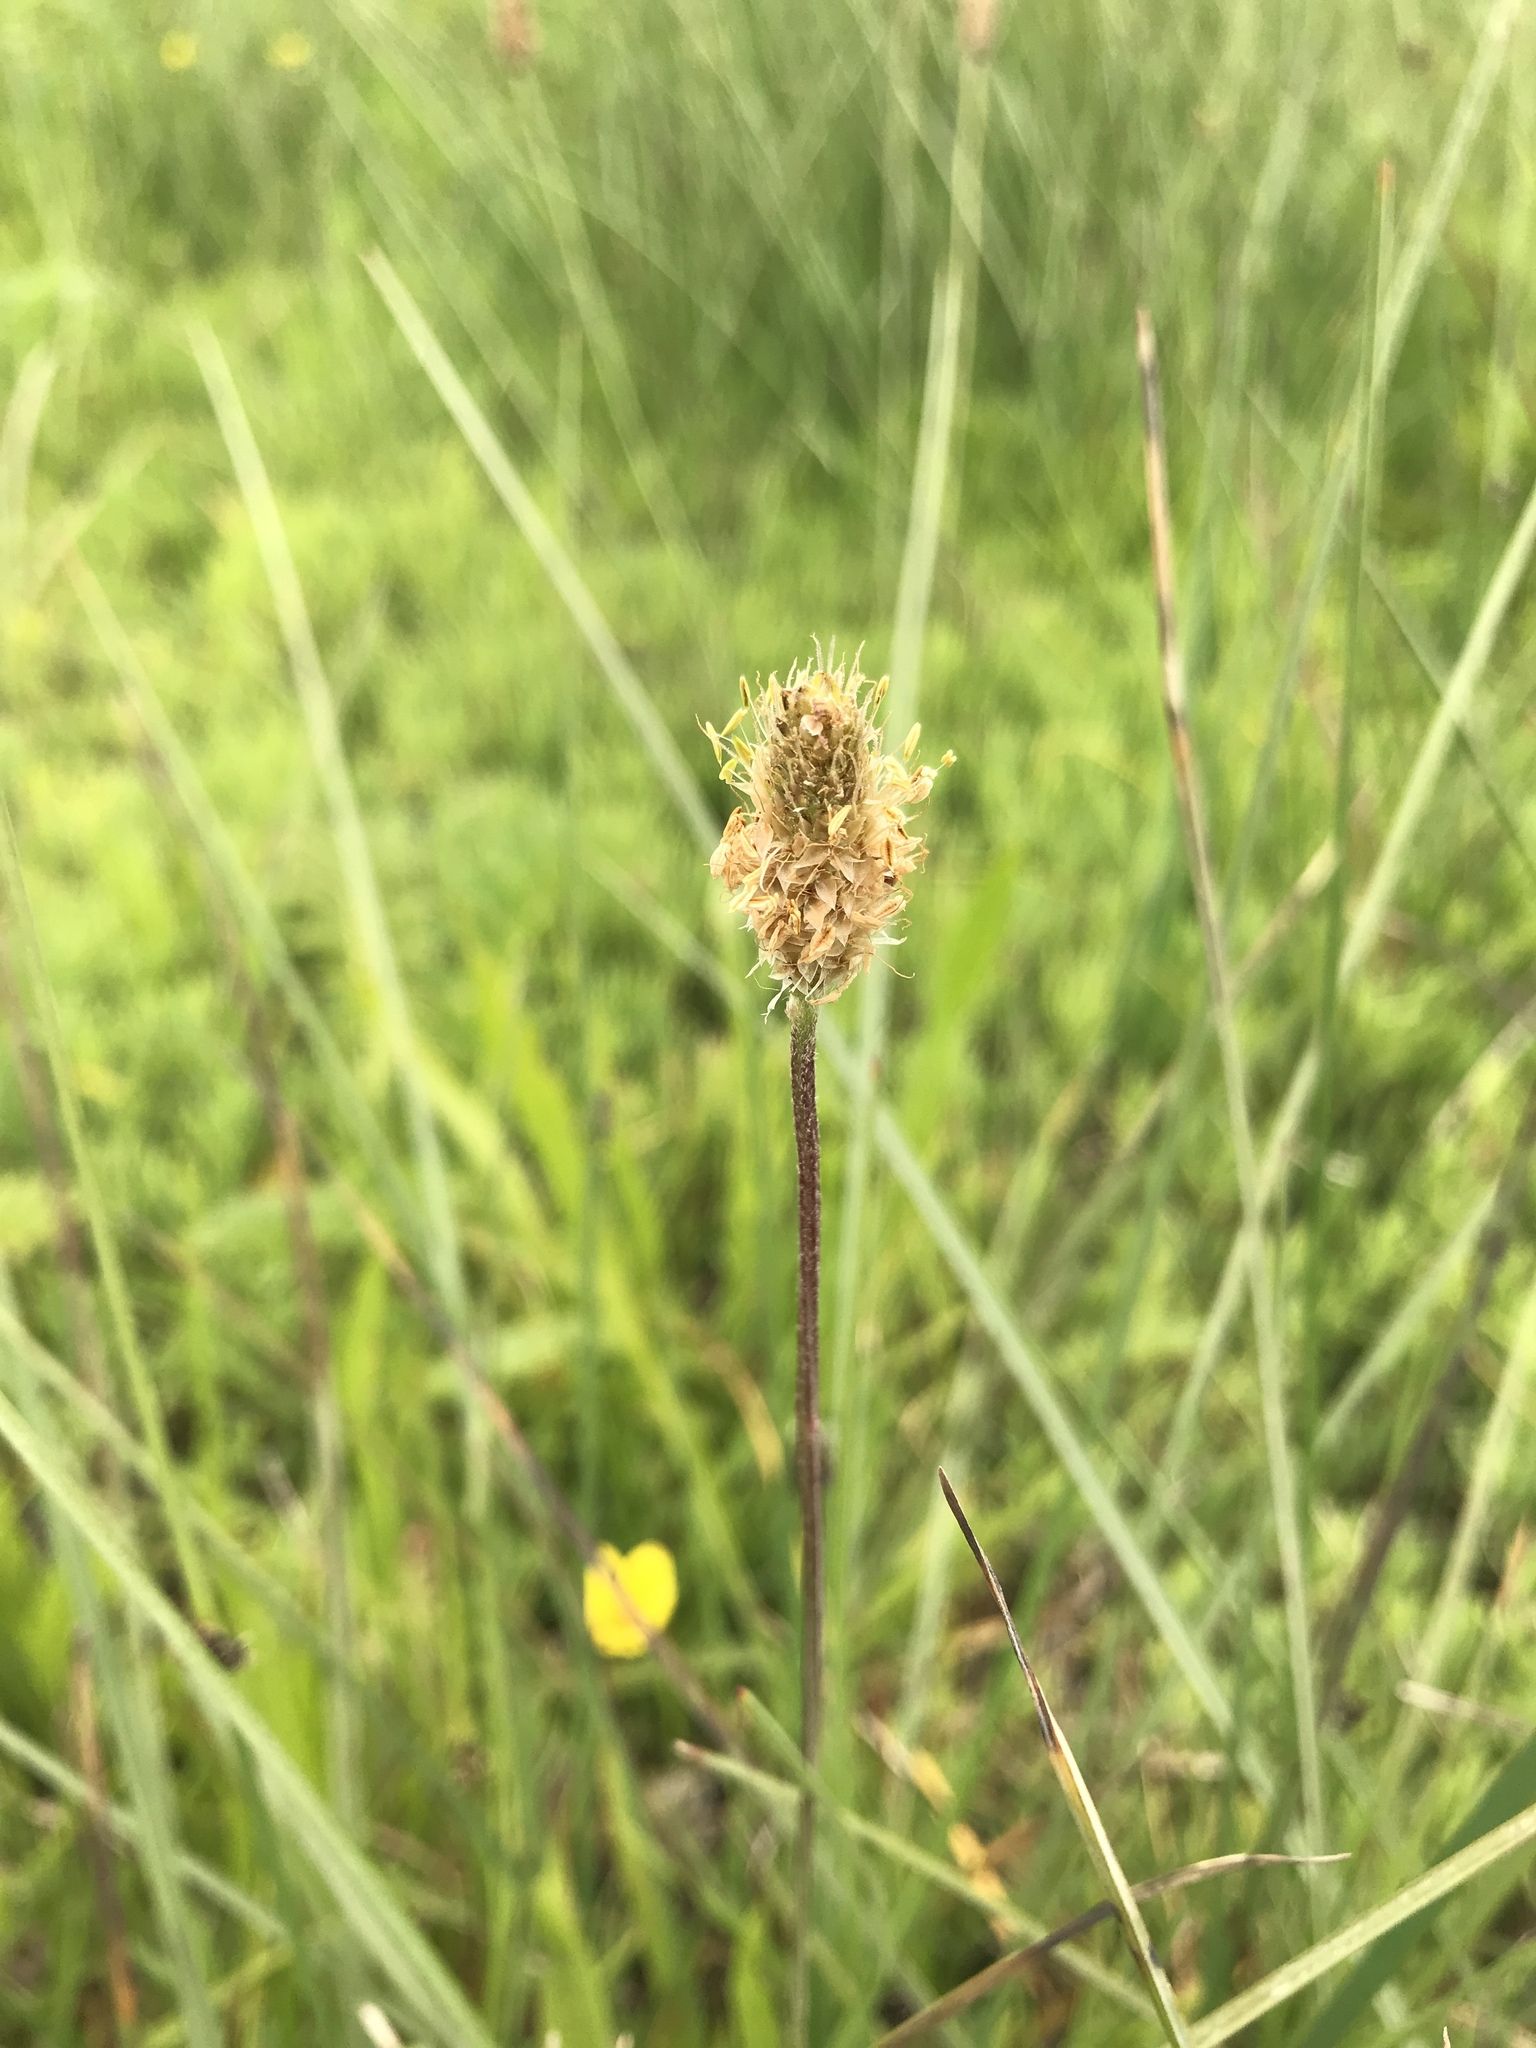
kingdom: Plantae
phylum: Tracheophyta
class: Magnoliopsida
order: Lamiales
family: Plantaginaceae
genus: Plantago
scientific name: Plantago lanceolata
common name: Ribwort plantain
